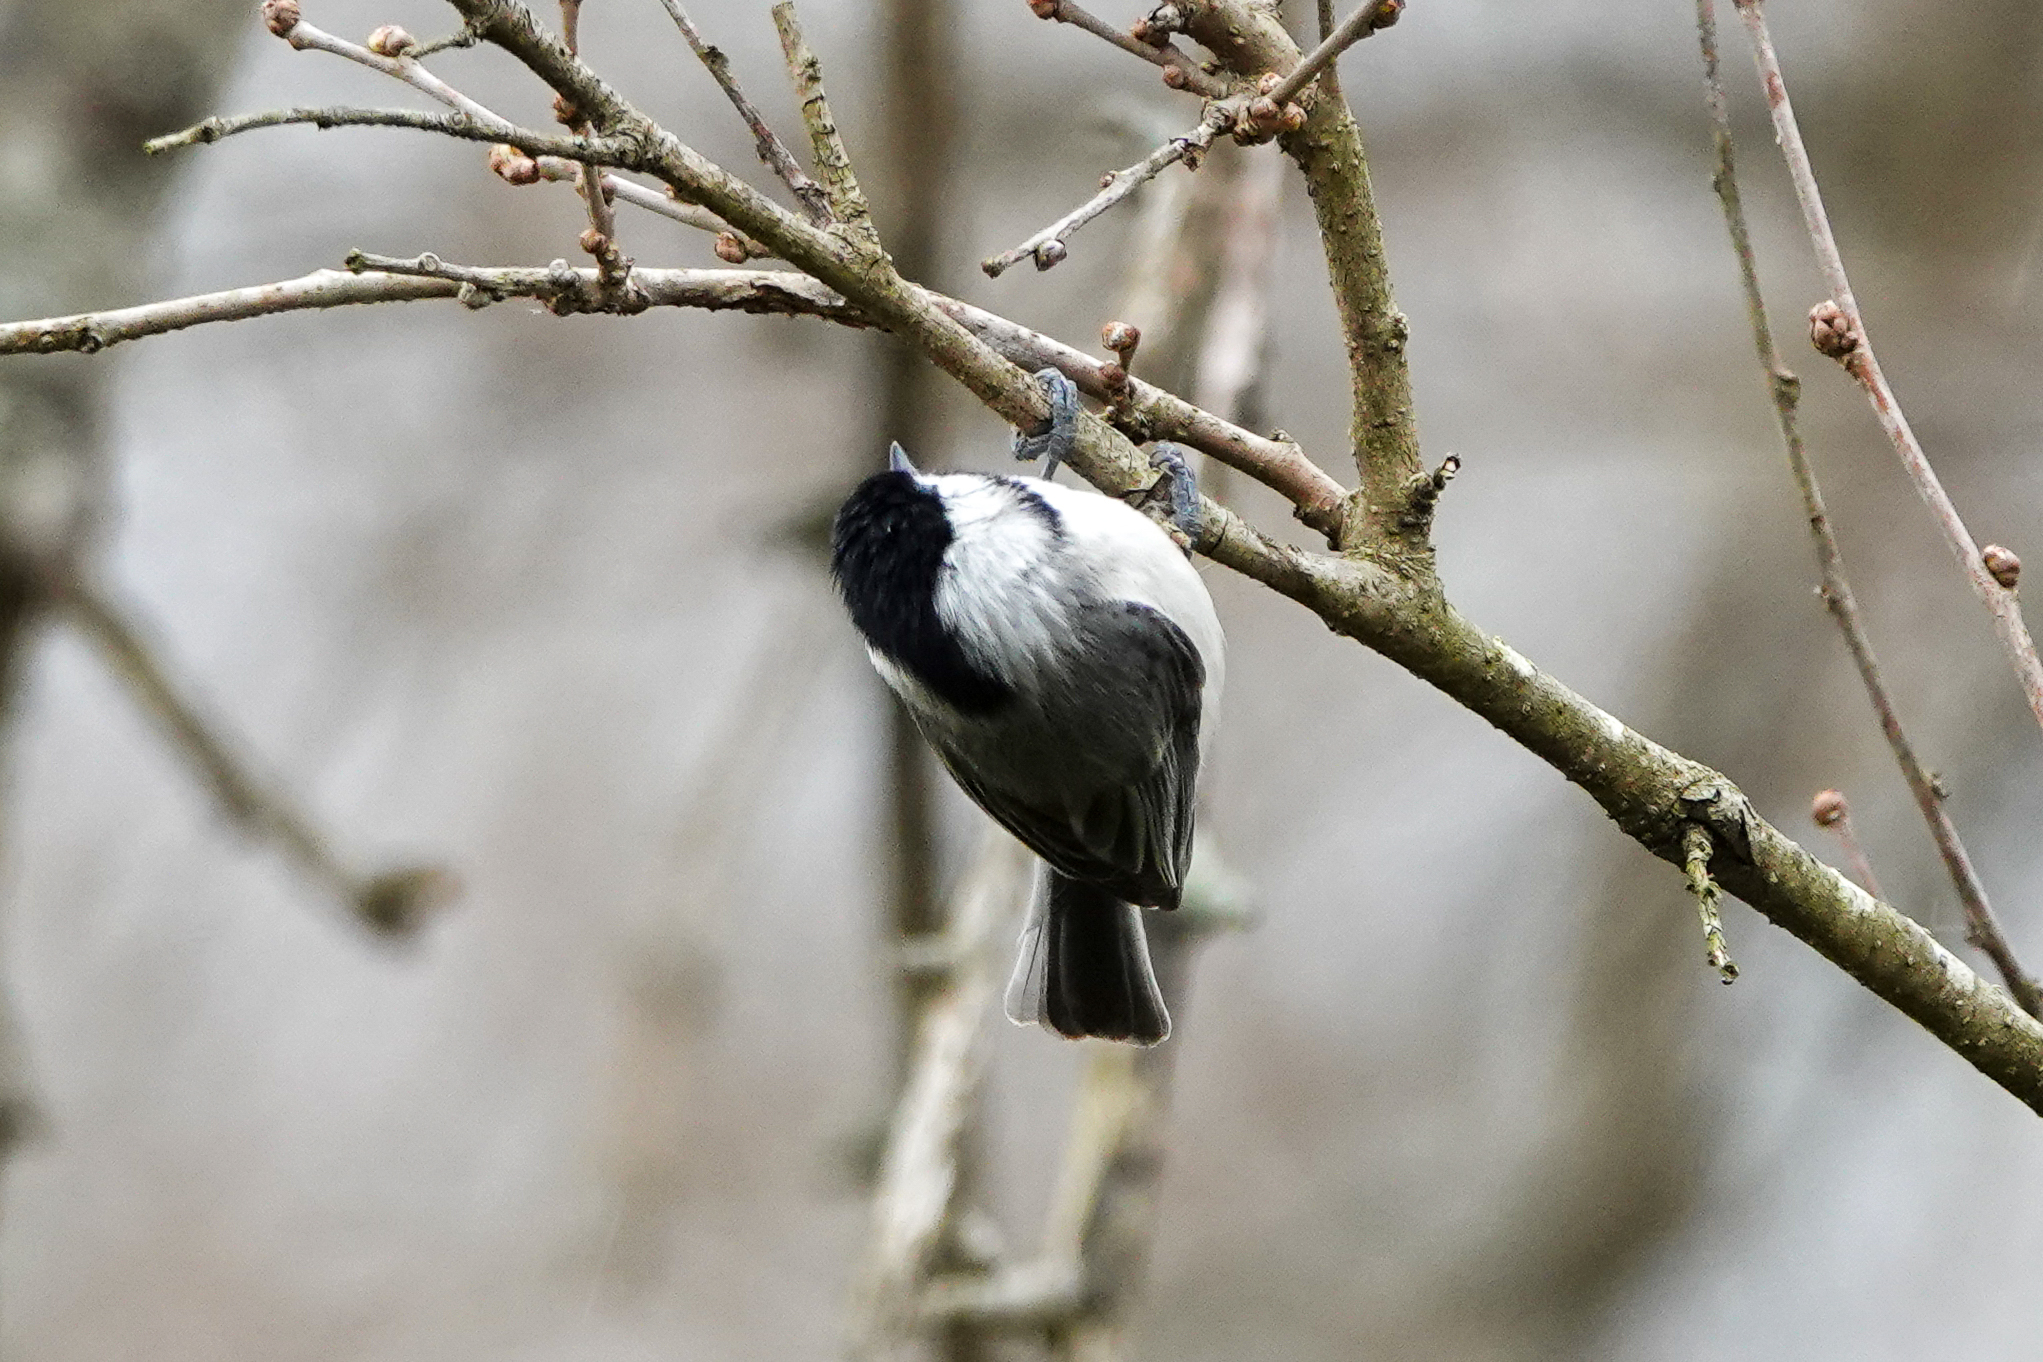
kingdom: Animalia
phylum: Chordata
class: Aves
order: Passeriformes
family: Paridae
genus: Poecile
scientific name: Poecile carolinensis
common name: Carolina chickadee
